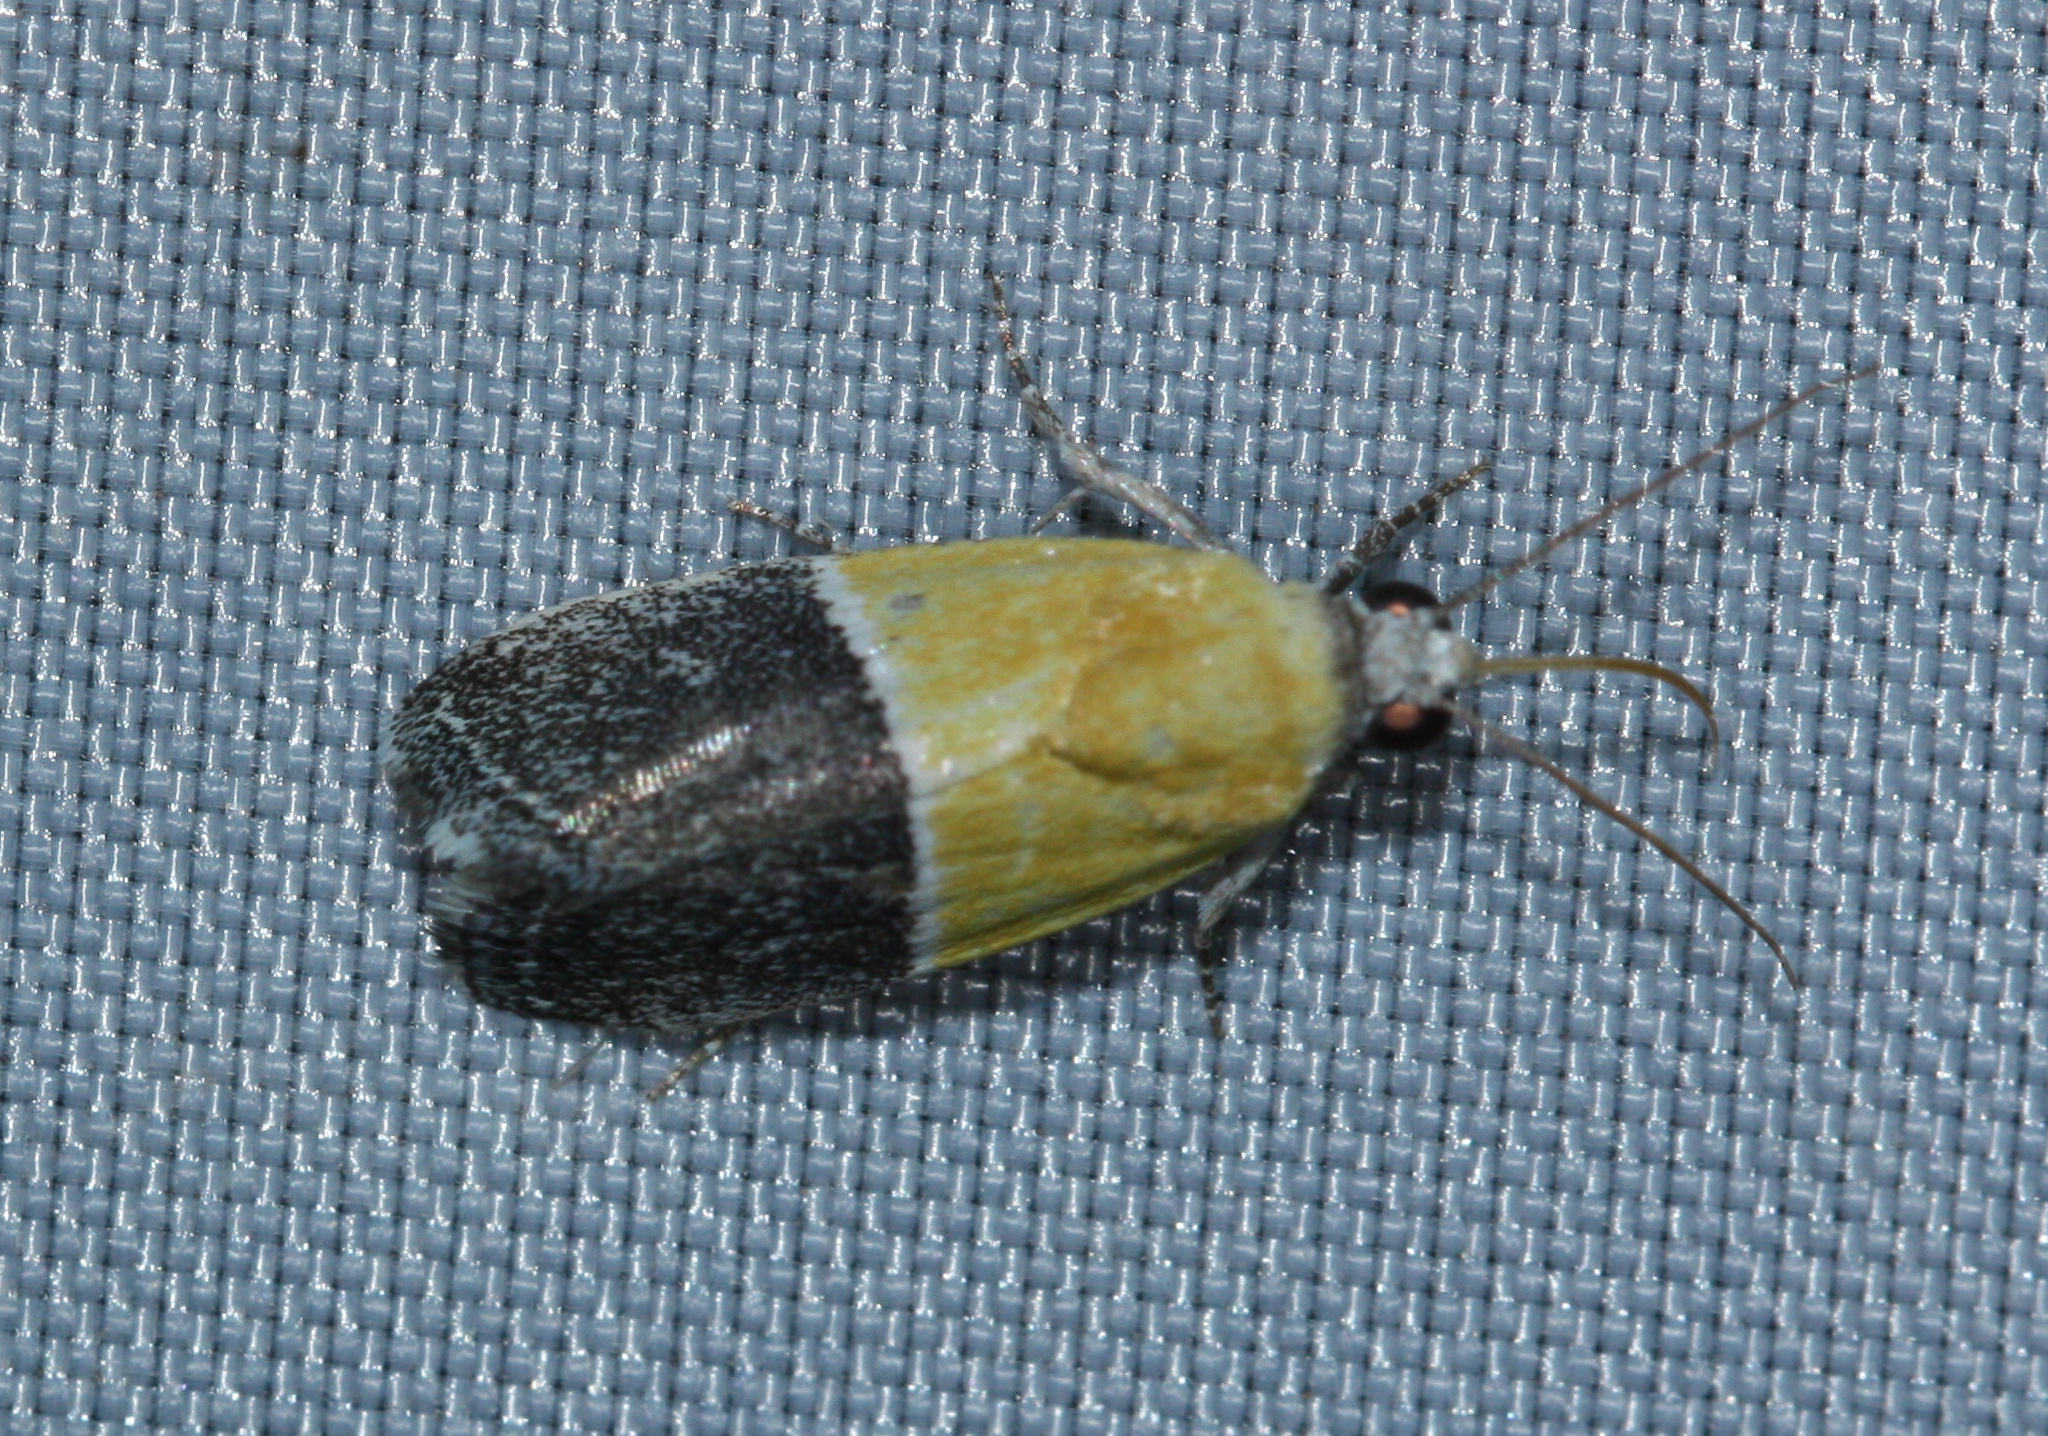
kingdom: Animalia
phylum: Arthropoda
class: Insecta
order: Lepidoptera
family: Noctuidae
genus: Acontia
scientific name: Acontia clausula
